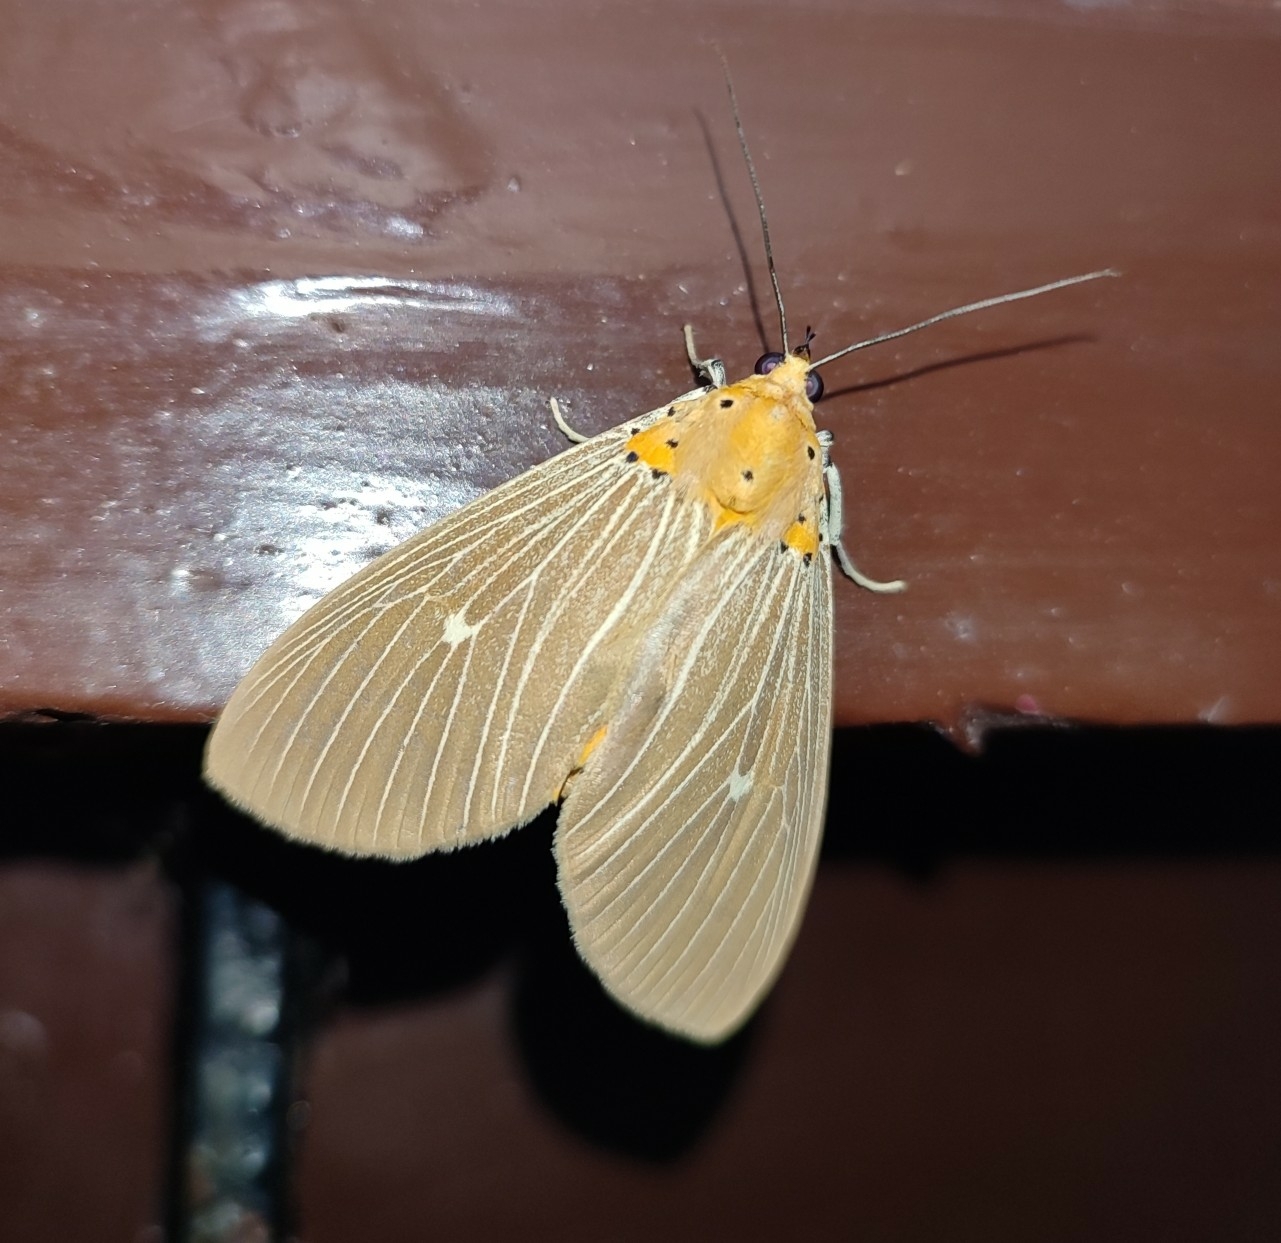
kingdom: Animalia
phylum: Arthropoda
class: Insecta
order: Lepidoptera
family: Erebidae
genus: Asota
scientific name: Asota caricae
